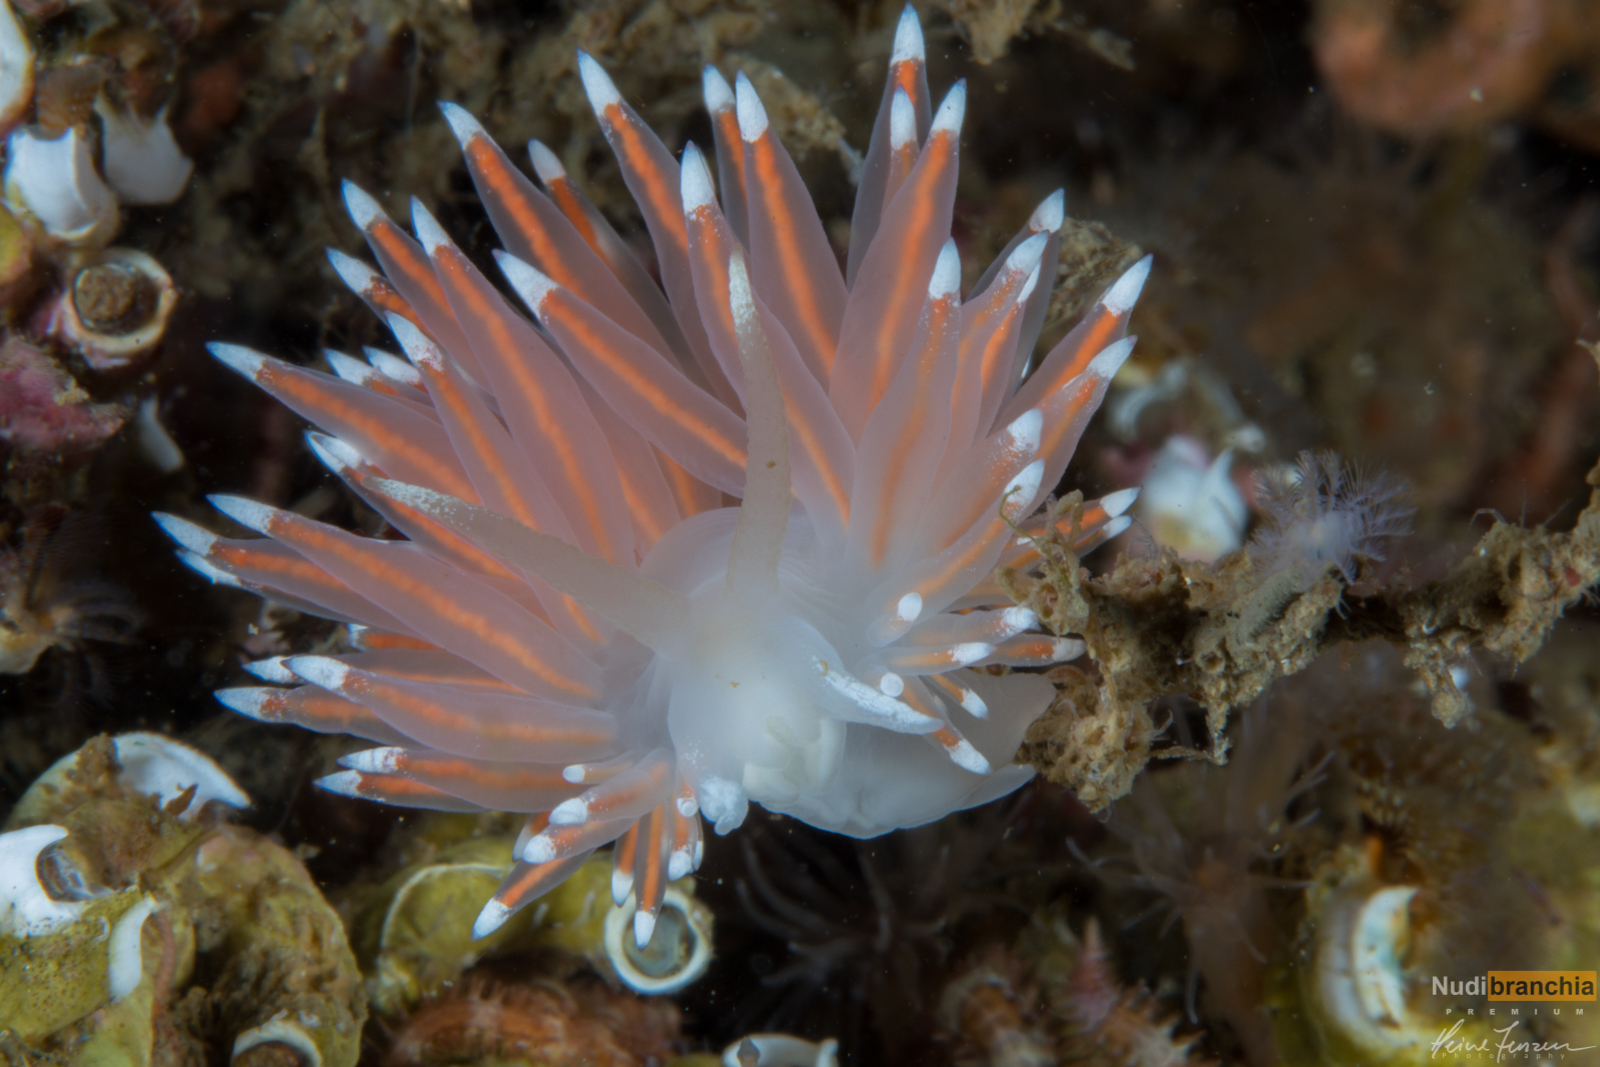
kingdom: Animalia
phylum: Mollusca
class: Gastropoda
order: Nudibranchia
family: Coryphellidae
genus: Coryphella
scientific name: Coryphella browni
